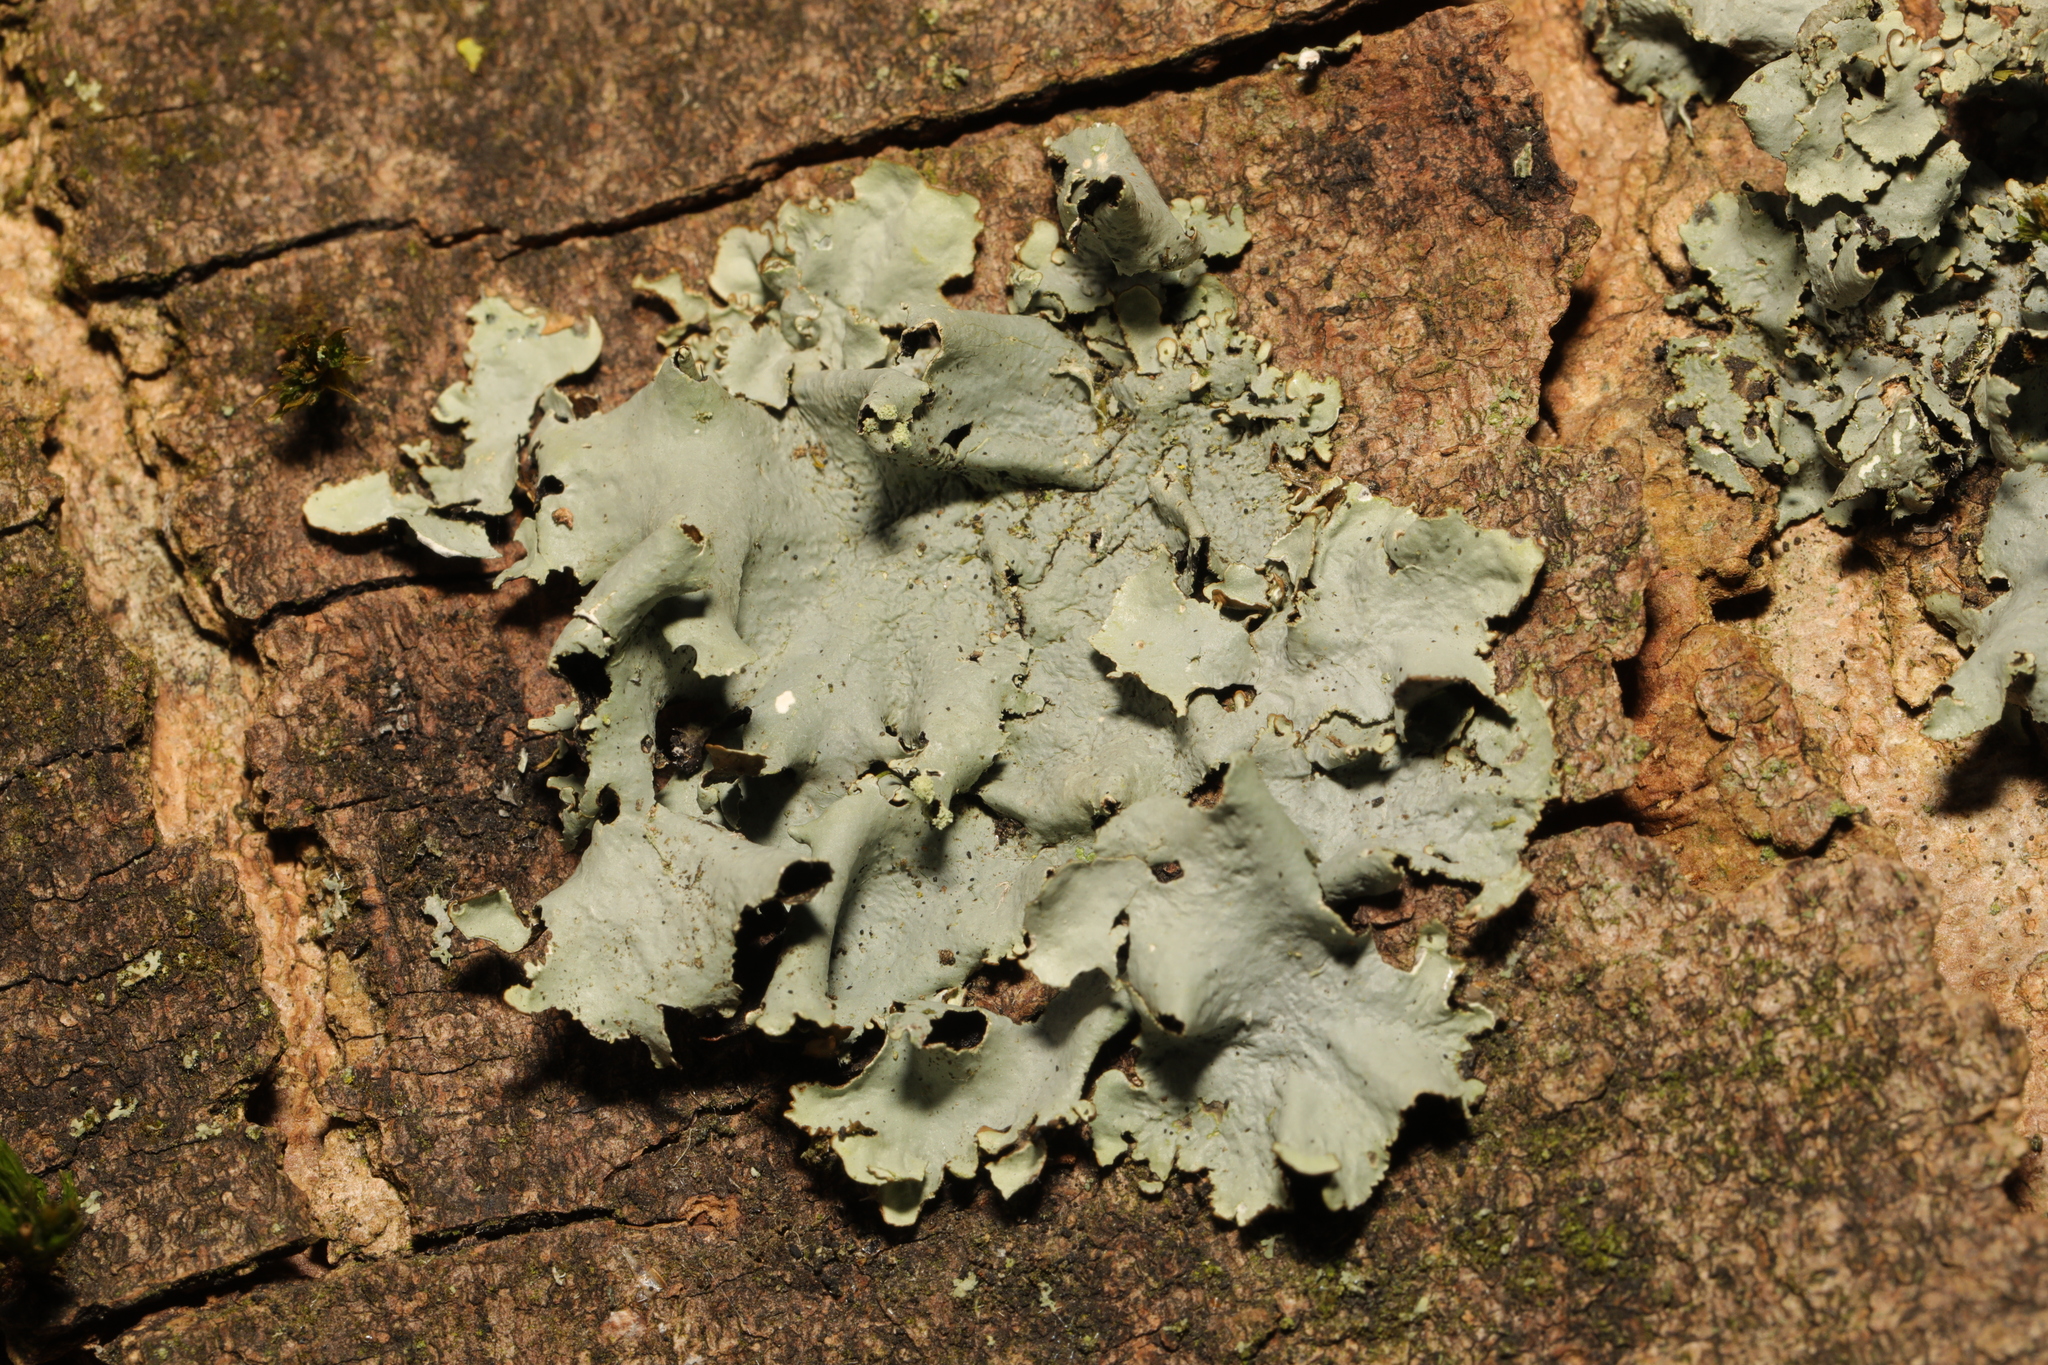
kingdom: Fungi
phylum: Ascomycota
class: Lecanoromycetes
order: Lecanorales
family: Parmeliaceae
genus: Parmotrema
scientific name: Parmotrema perlatum
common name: Black stone flower
